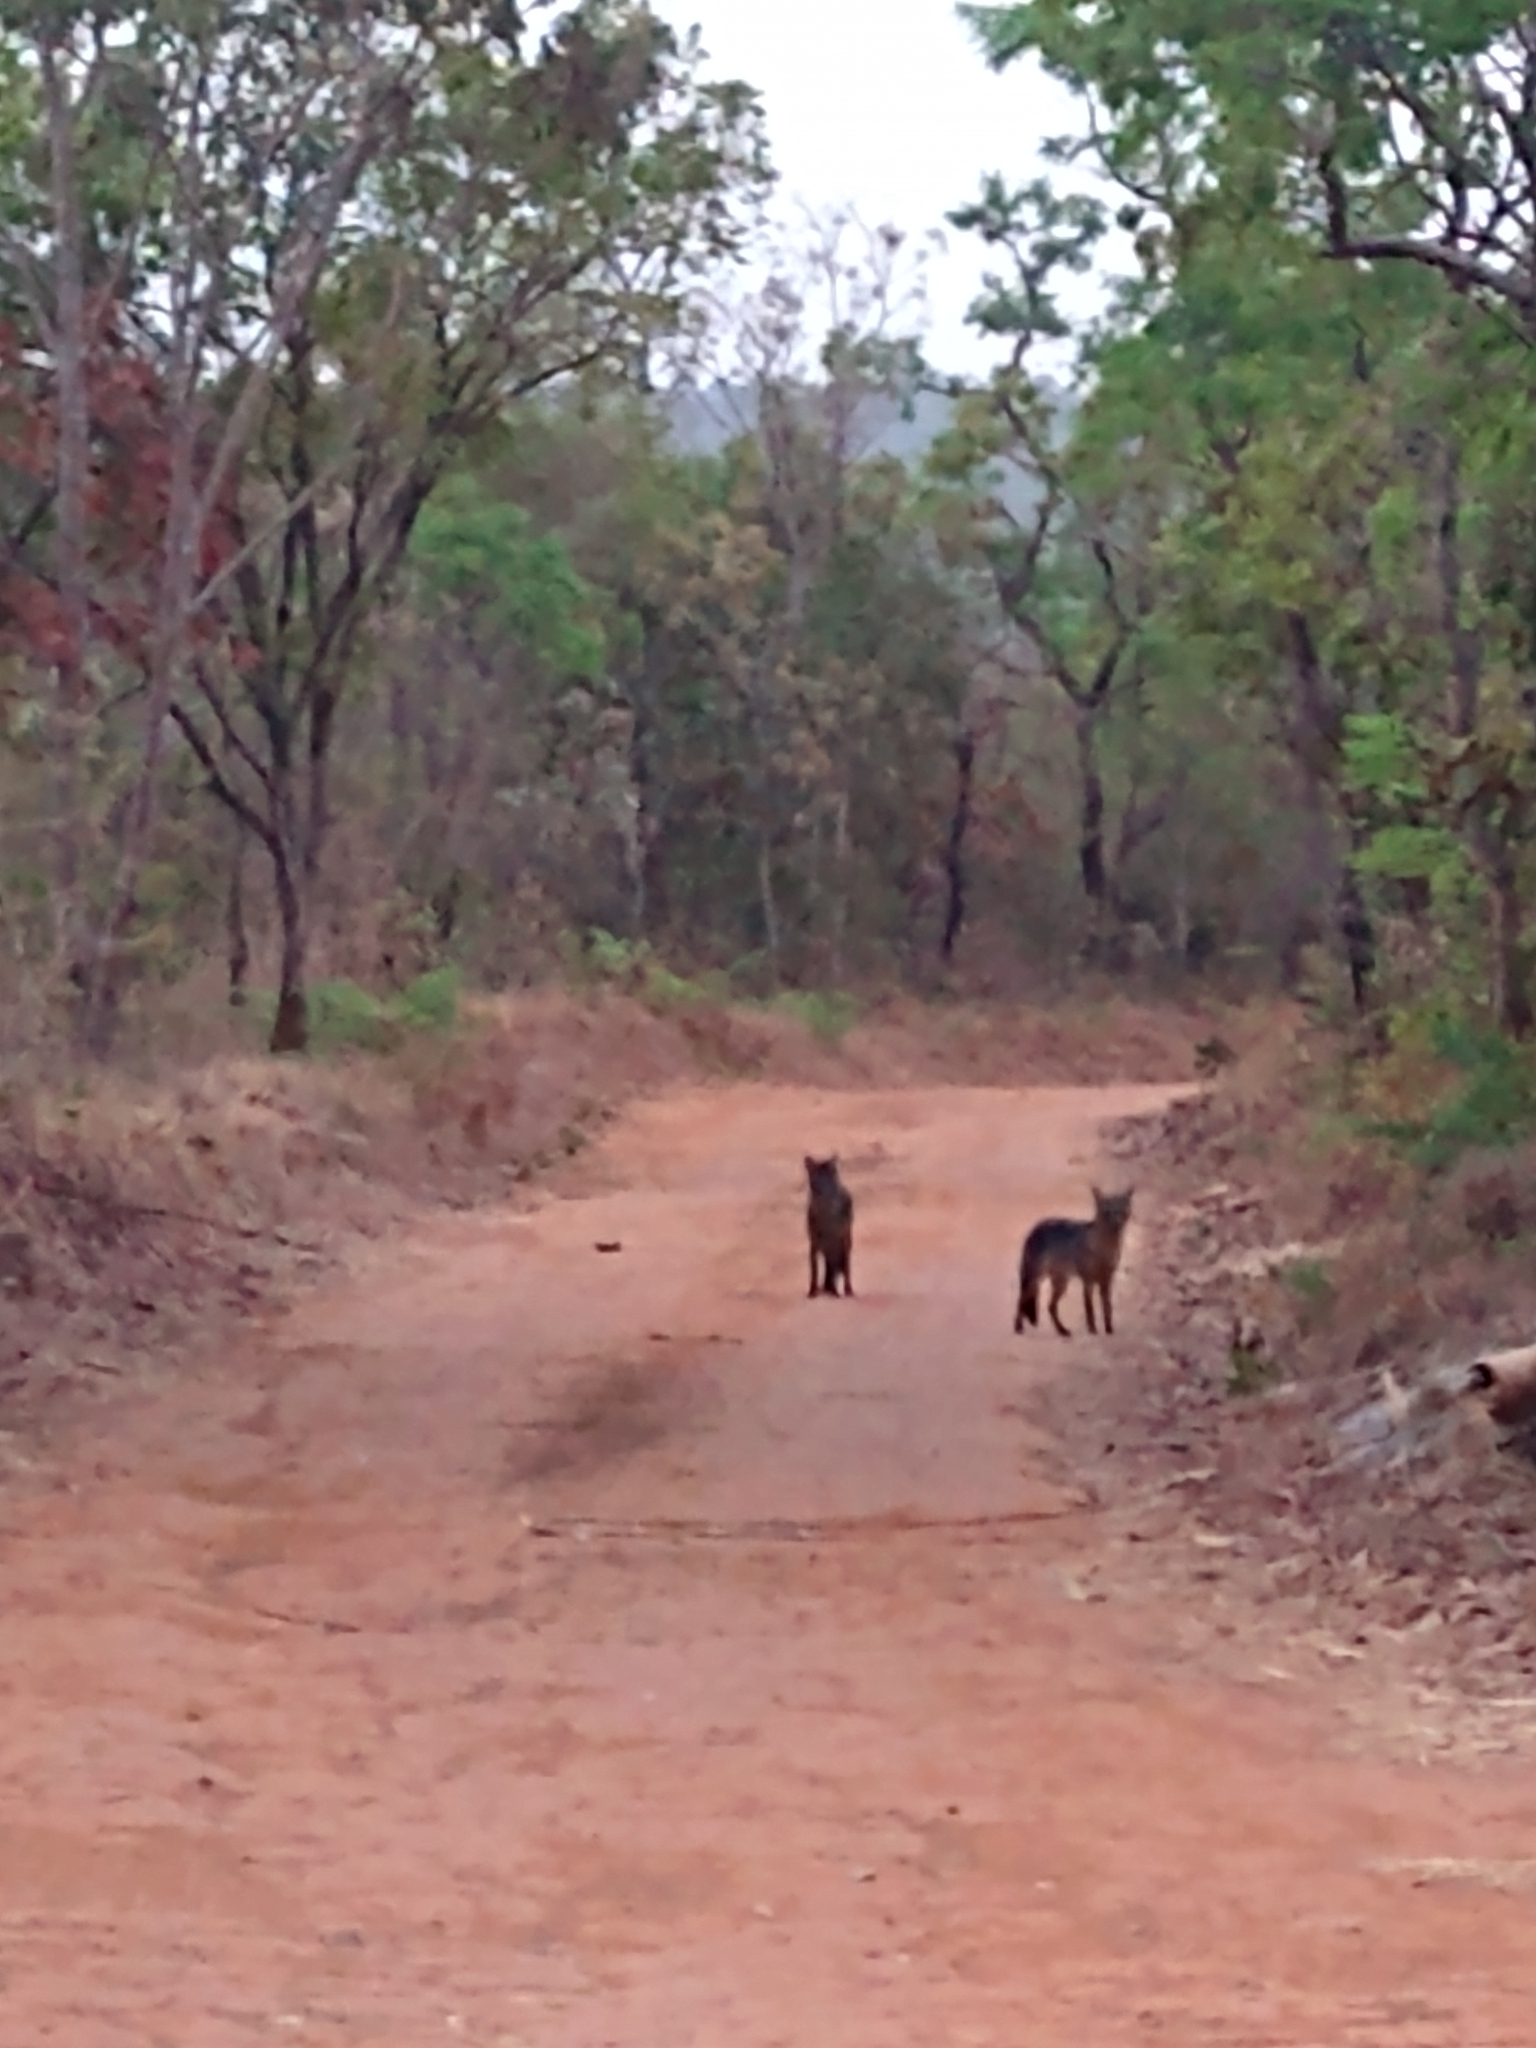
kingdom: Animalia
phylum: Chordata
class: Mammalia
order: Carnivora
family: Canidae
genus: Cerdocyon
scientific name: Cerdocyon thous
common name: Crab-eating fox
